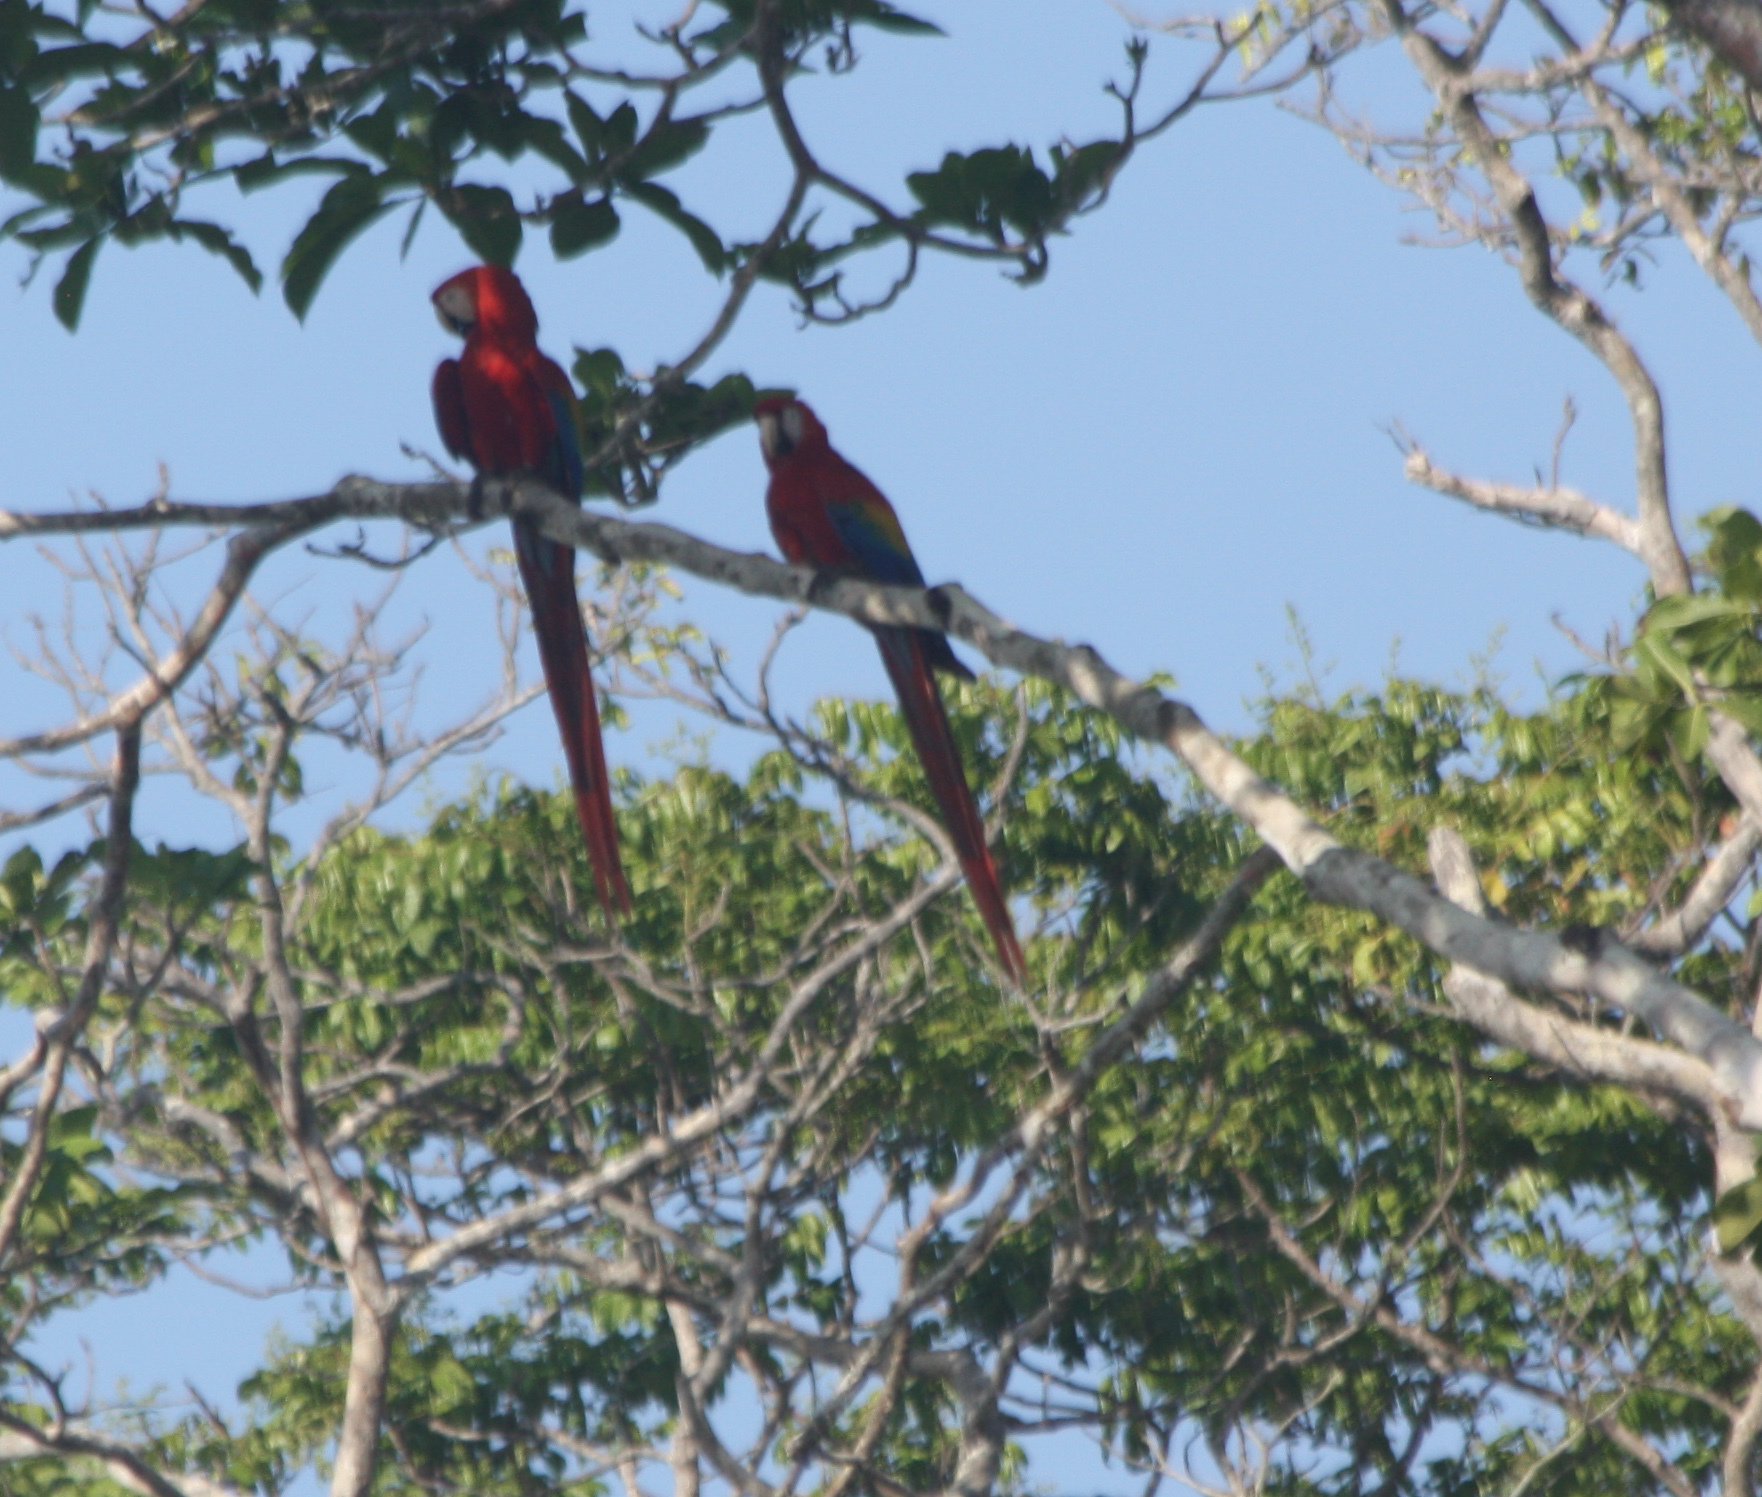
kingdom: Animalia
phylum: Chordata
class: Aves
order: Psittaciformes
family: Psittacidae
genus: Ara
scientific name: Ara macao
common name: Scarlet macaw
